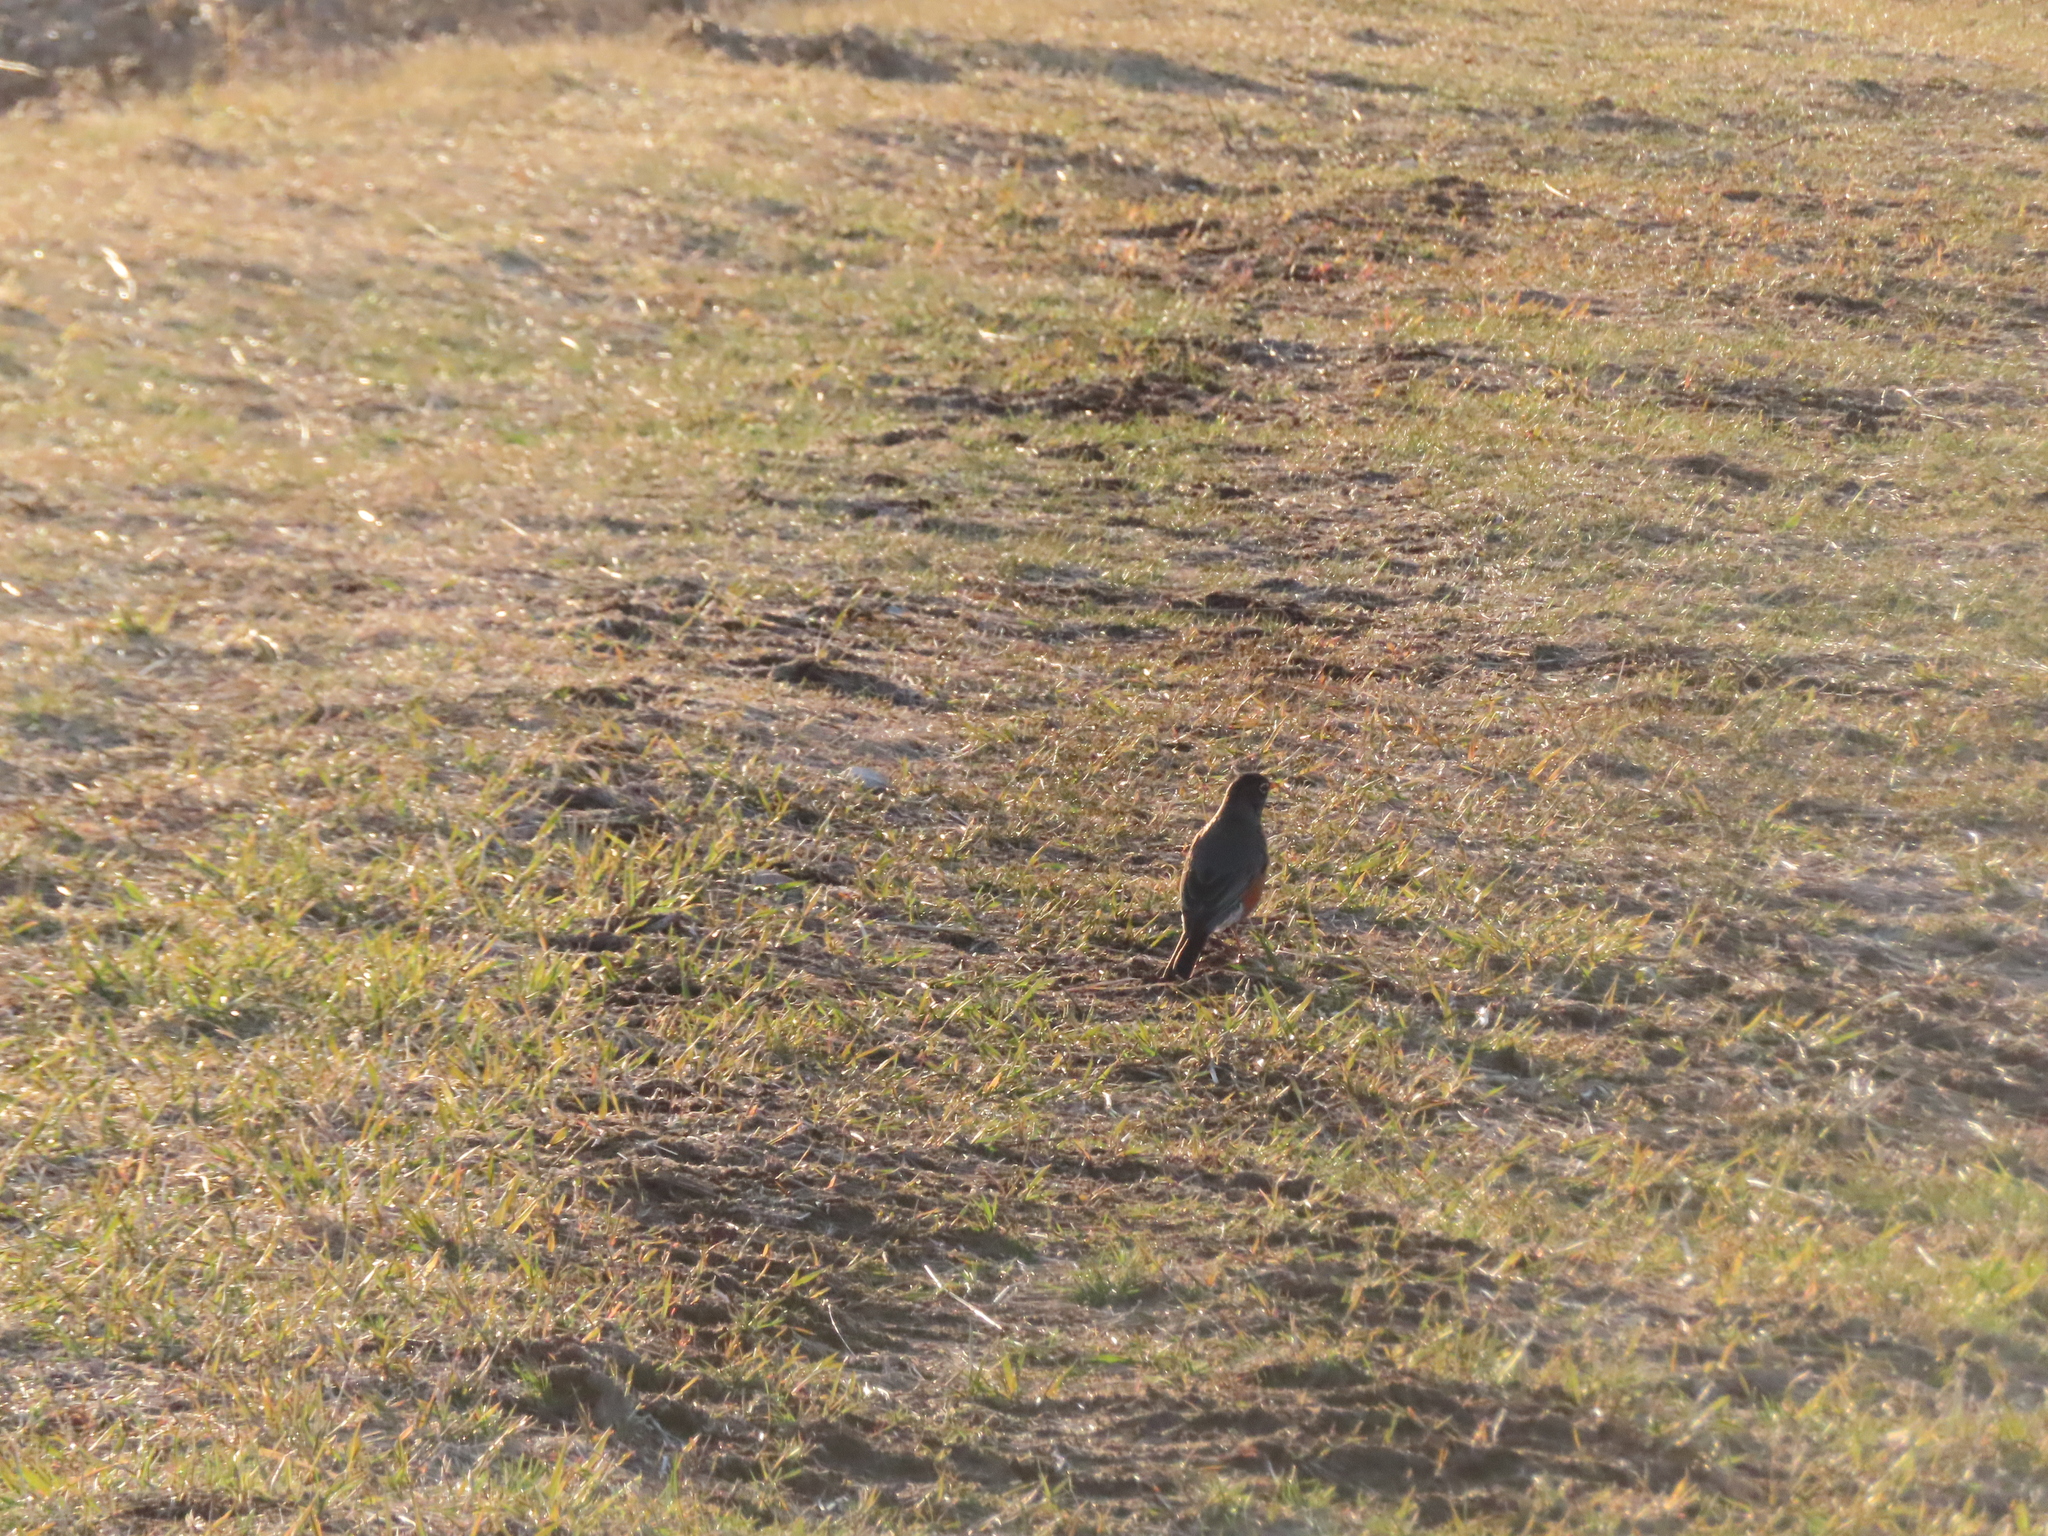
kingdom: Animalia
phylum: Chordata
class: Aves
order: Passeriformes
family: Turdidae
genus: Turdus
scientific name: Turdus migratorius
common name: American robin
